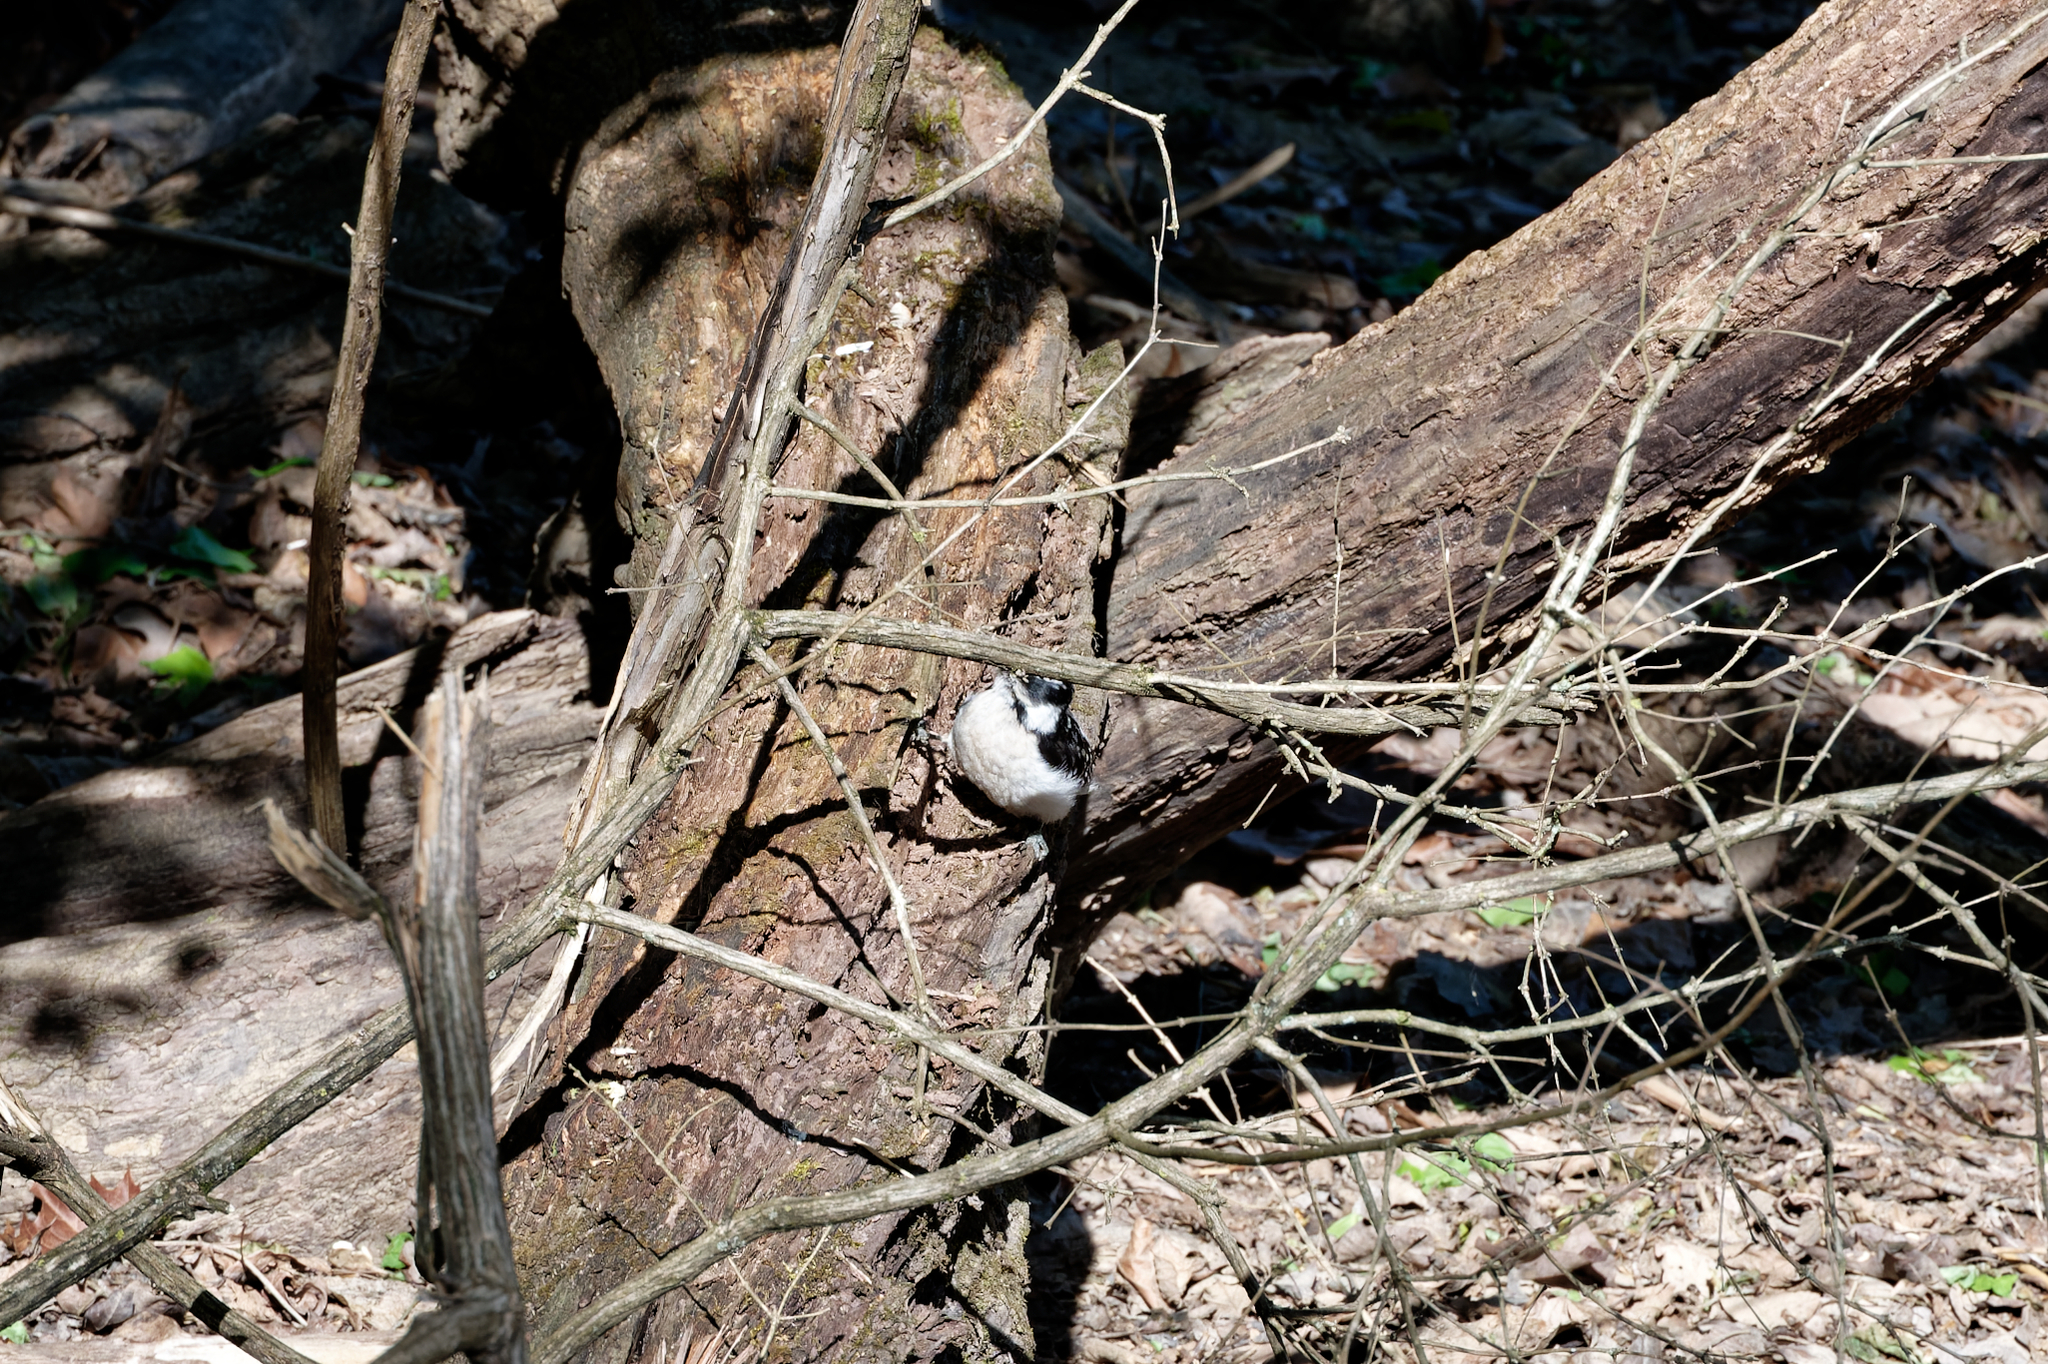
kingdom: Animalia
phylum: Chordata
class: Aves
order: Piciformes
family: Picidae
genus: Dryobates
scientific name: Dryobates pubescens
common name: Downy woodpecker
